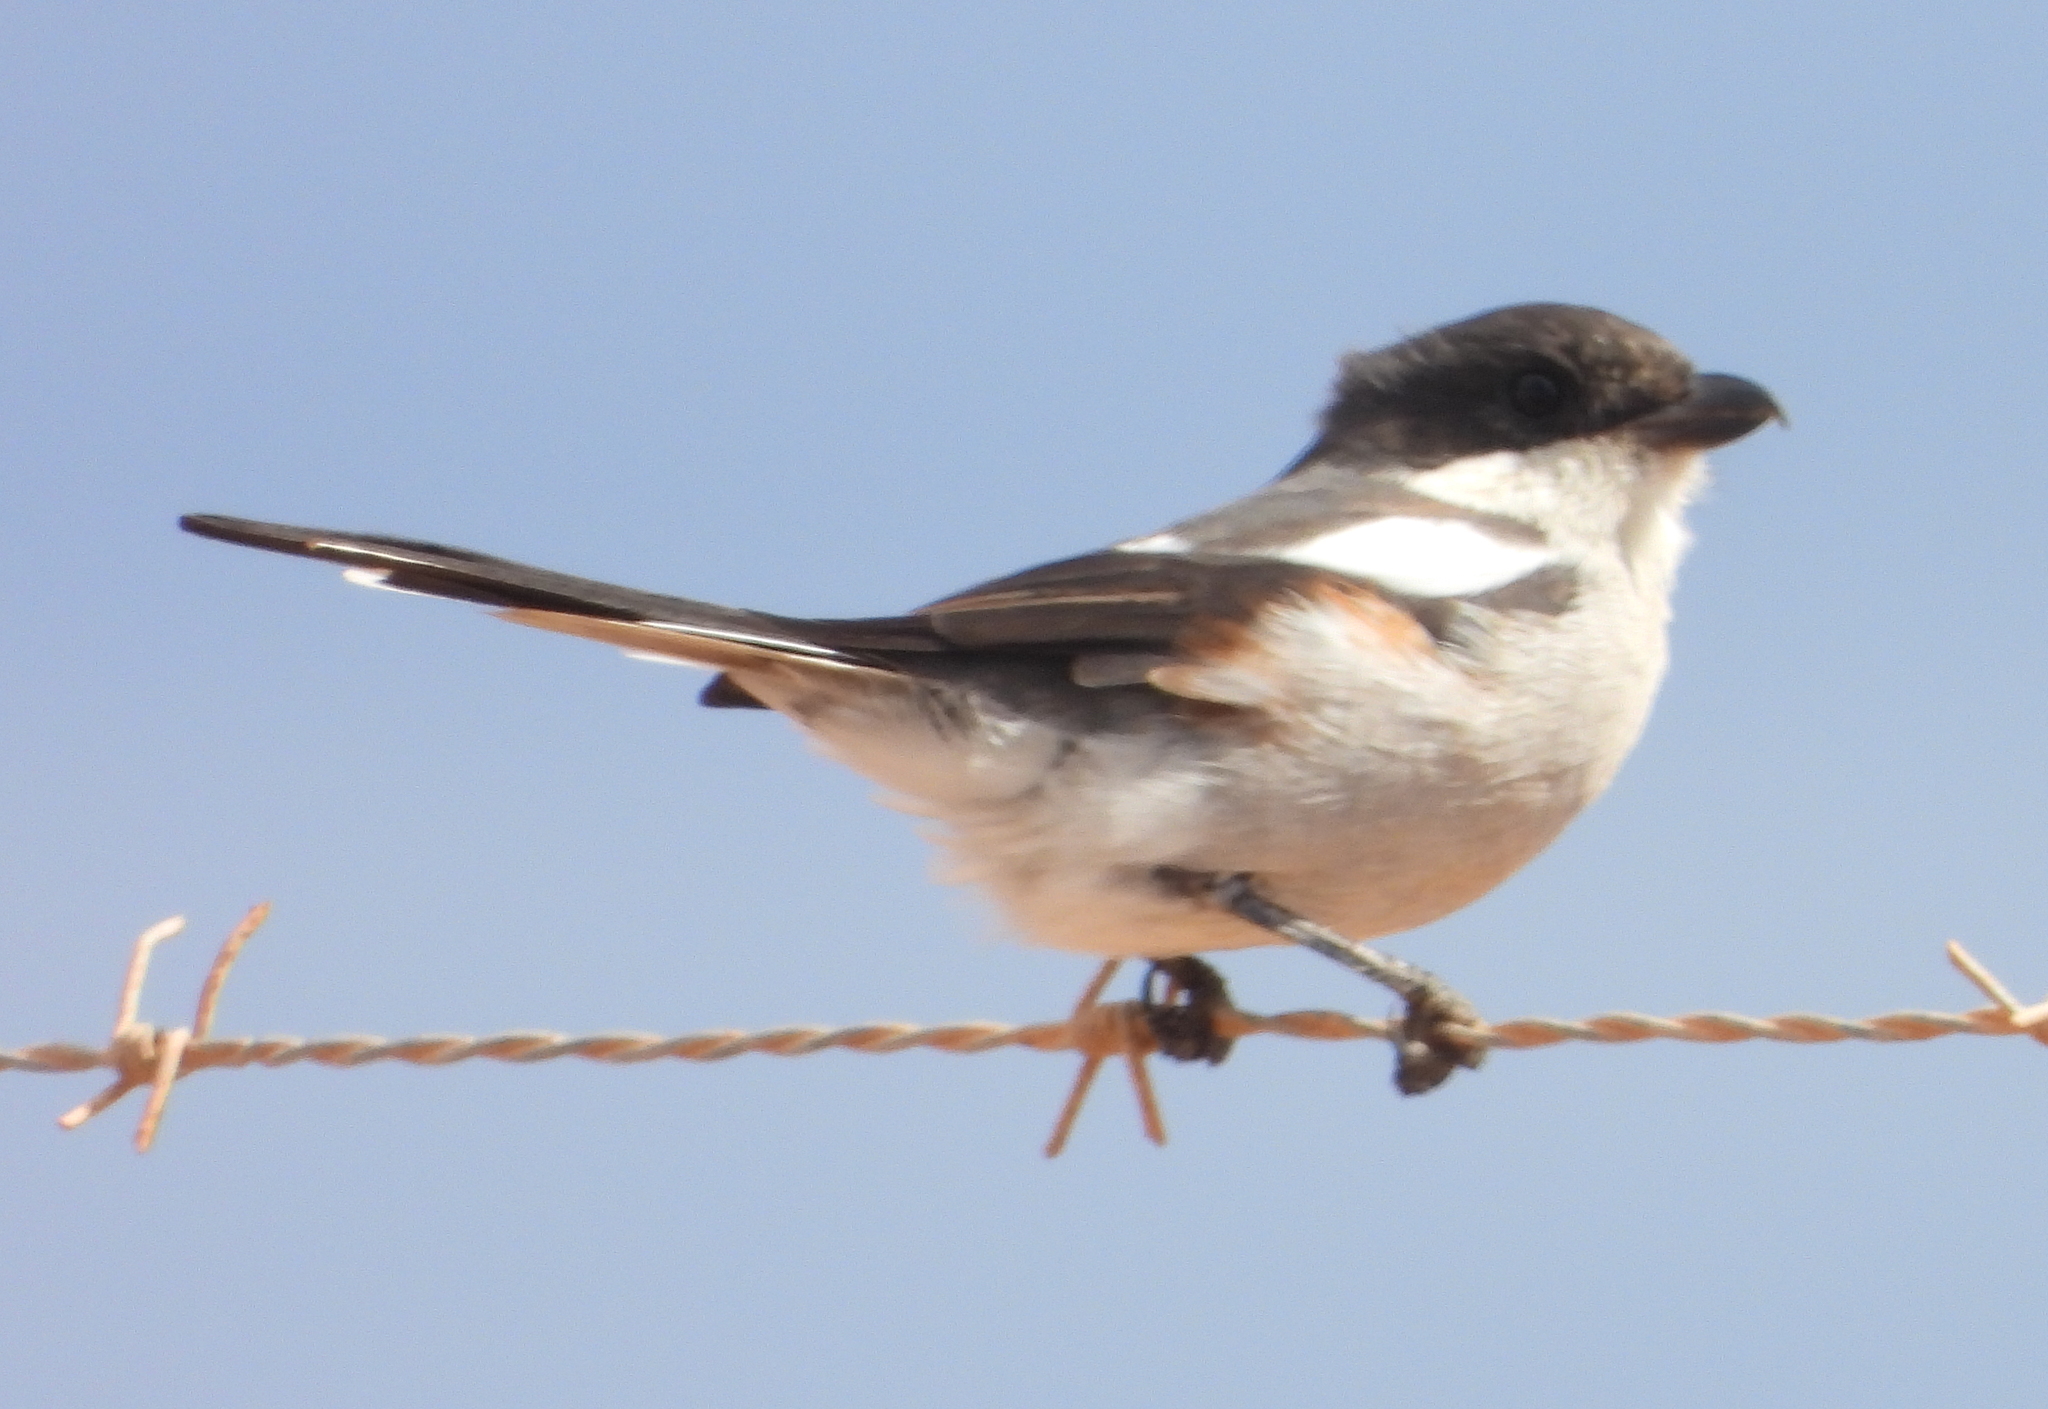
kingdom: Animalia
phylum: Chordata
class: Aves
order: Passeriformes
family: Laniidae
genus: Lanius
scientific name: Lanius collaris
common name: Southern fiscal
